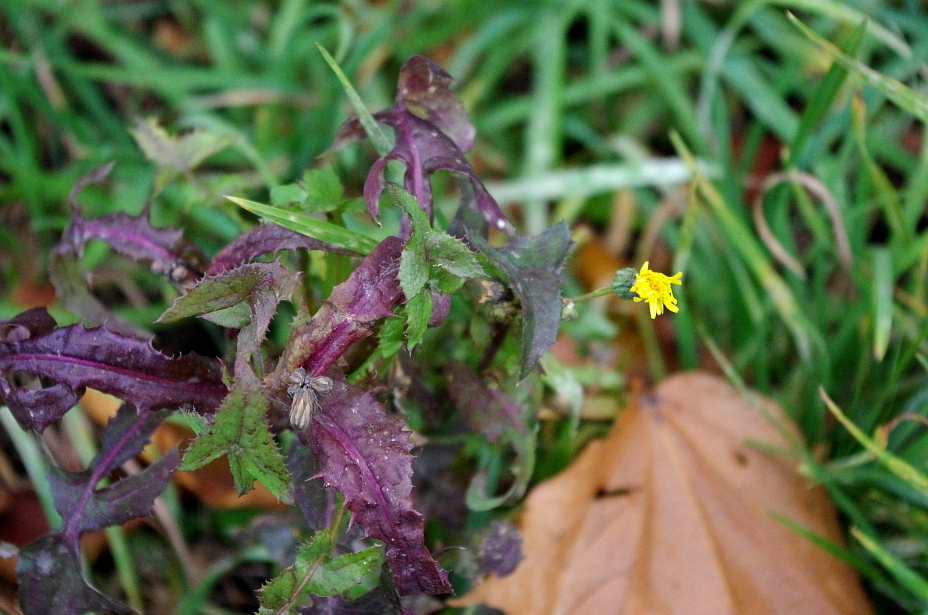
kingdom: Plantae
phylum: Tracheophyta
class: Magnoliopsida
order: Asterales
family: Asteraceae
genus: Sonchus
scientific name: Sonchus oleraceus
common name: Common sowthistle
